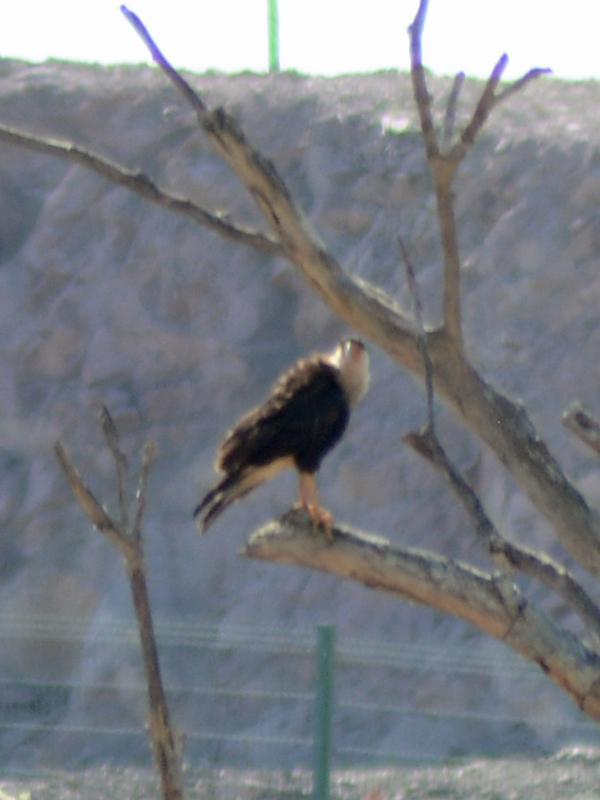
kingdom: Animalia
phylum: Chordata
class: Aves
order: Falconiformes
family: Falconidae
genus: Caracara
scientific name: Caracara plancus
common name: Southern caracara
